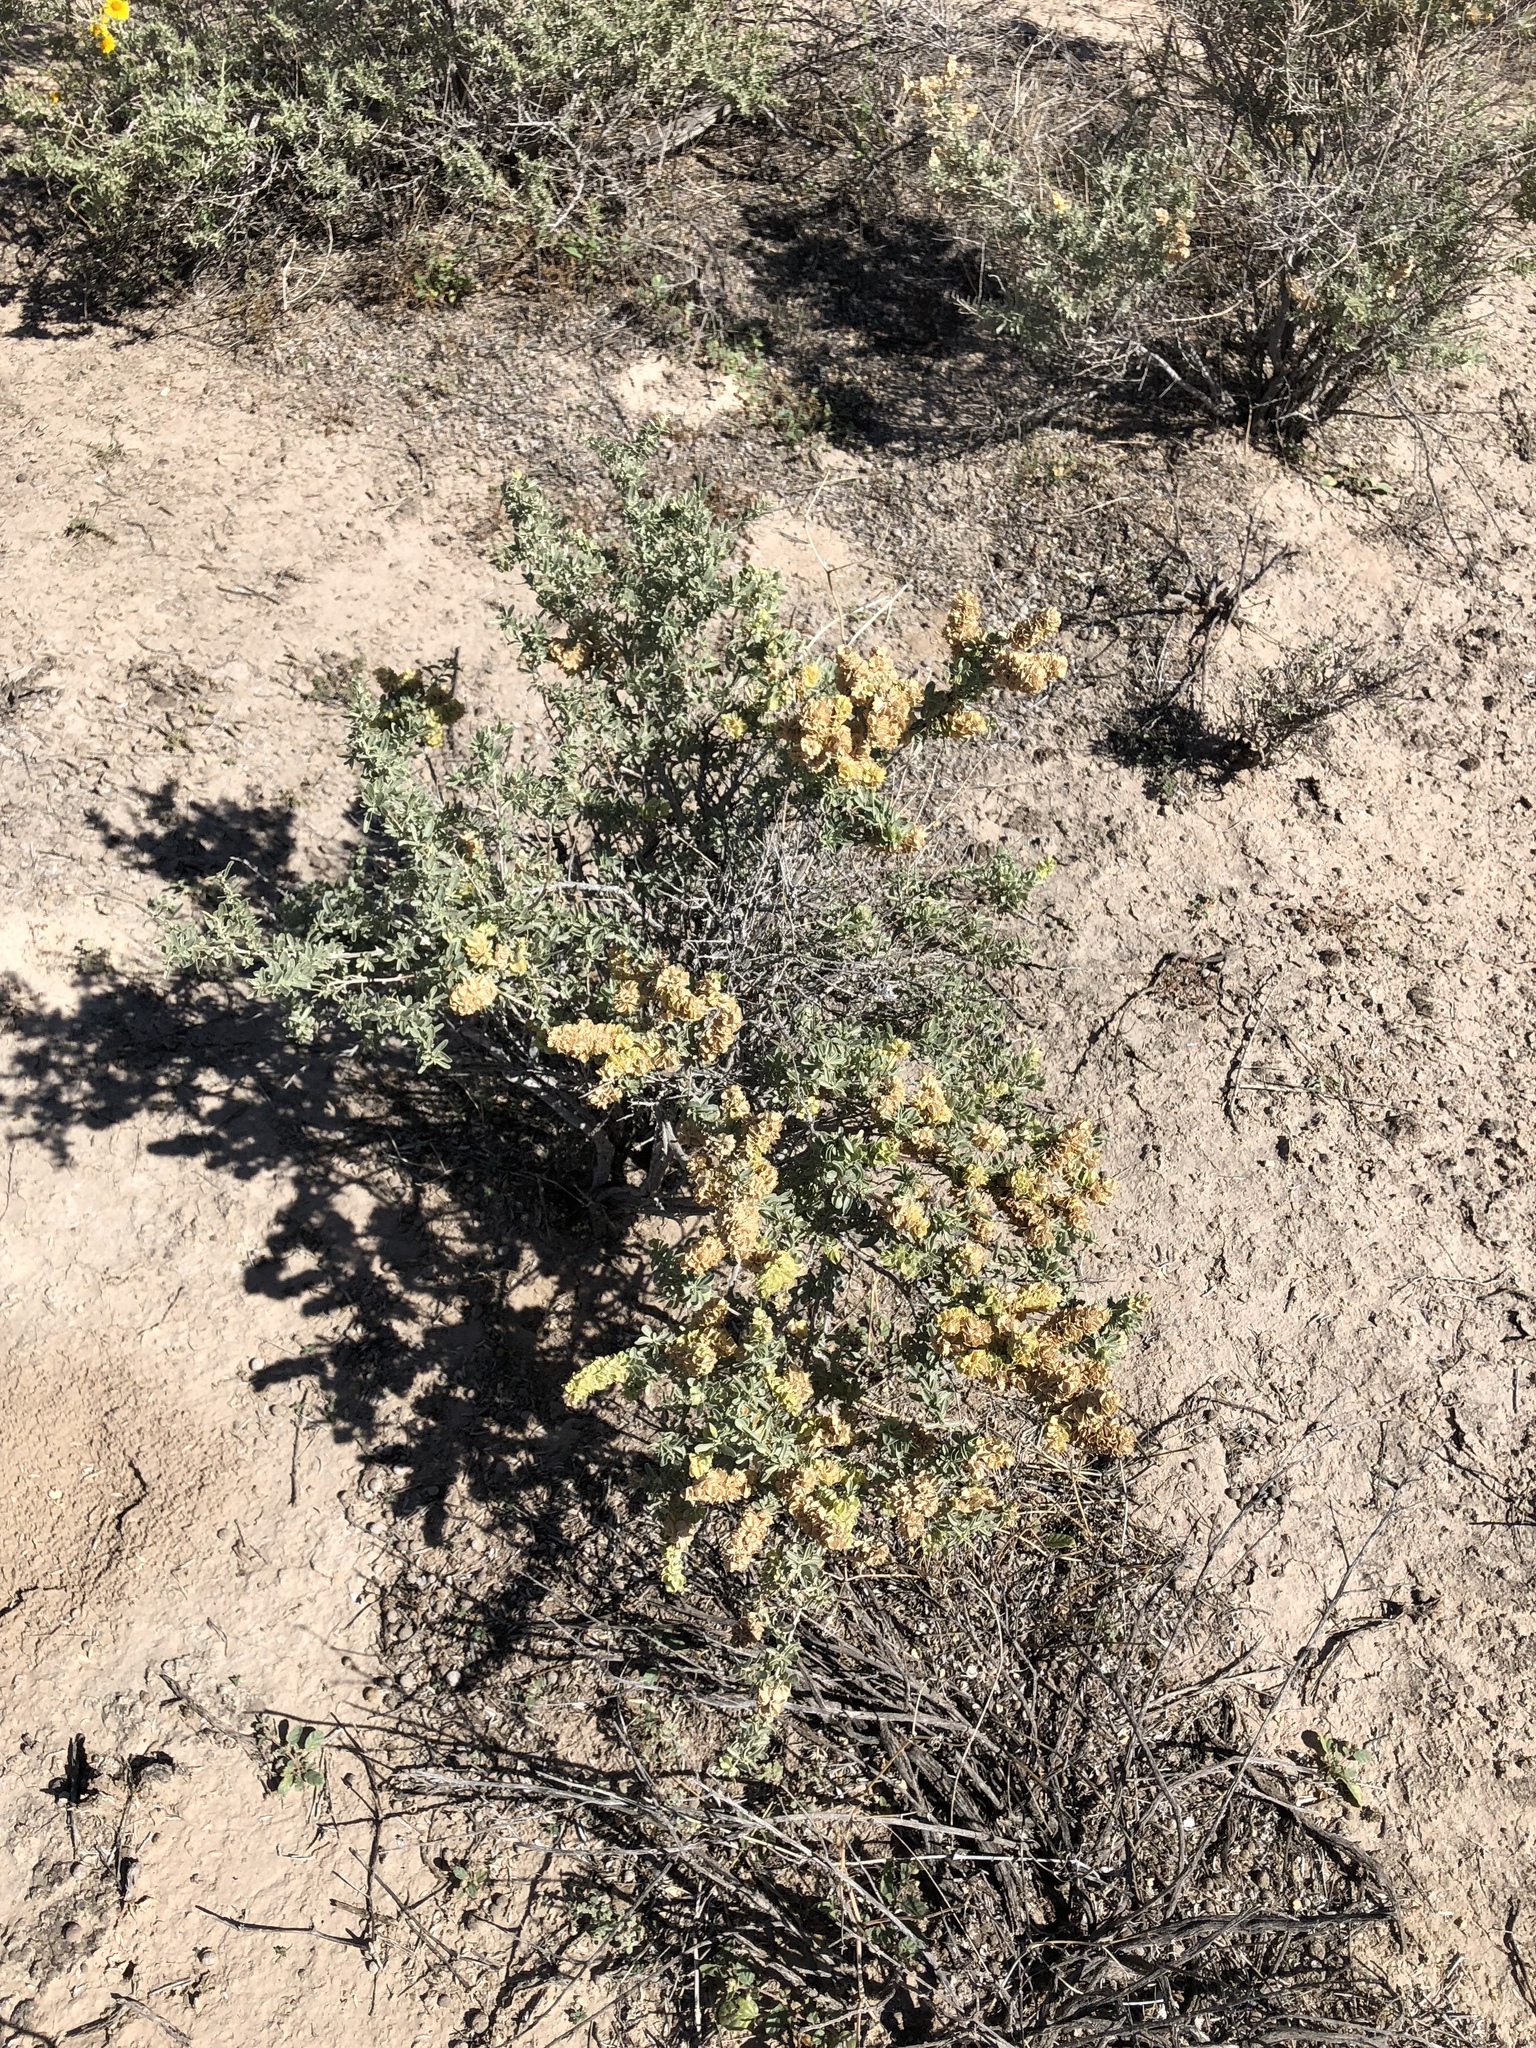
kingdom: Plantae
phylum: Tracheophyta
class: Magnoliopsida
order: Caryophyllales
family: Amaranthaceae
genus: Atriplex
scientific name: Atriplex canescens
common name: Four-wing saltbush
